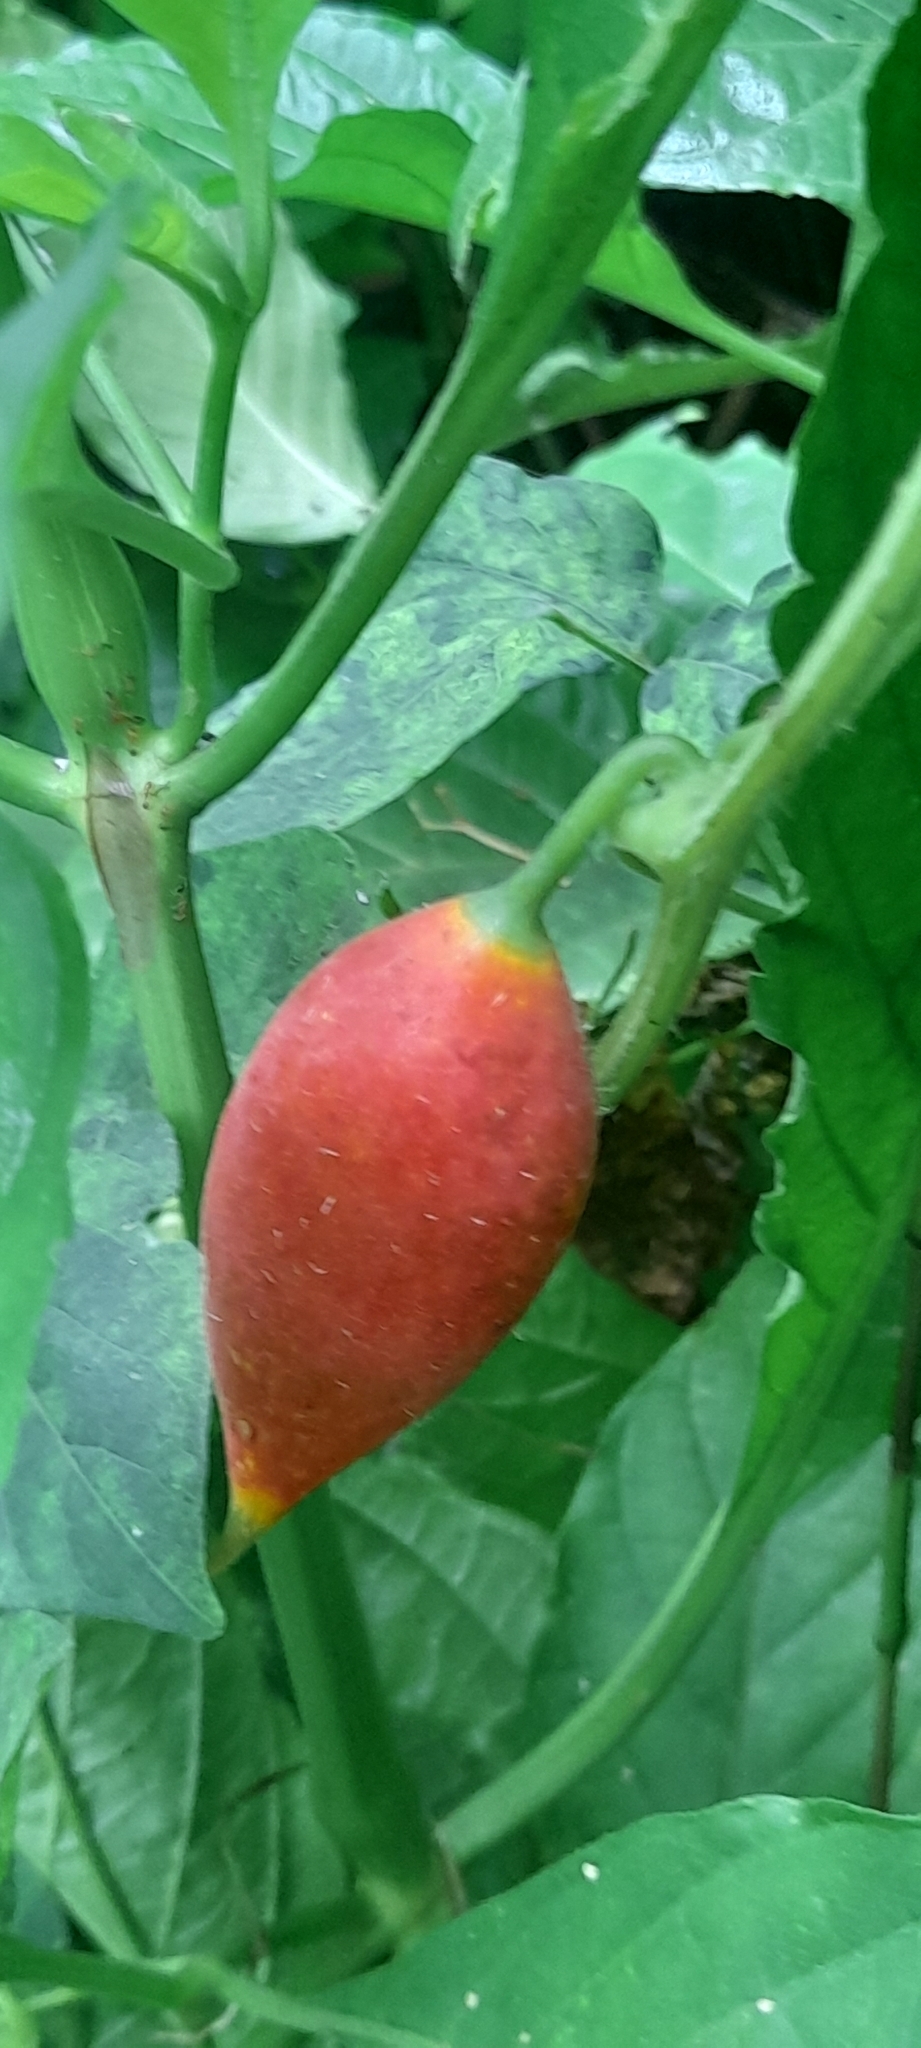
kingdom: Plantae
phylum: Tracheophyta
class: Magnoliopsida
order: Cucurbitales
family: Cucurbitaceae
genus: Trichosanthes
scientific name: Trichosanthes dioica
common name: Pointed gourd
